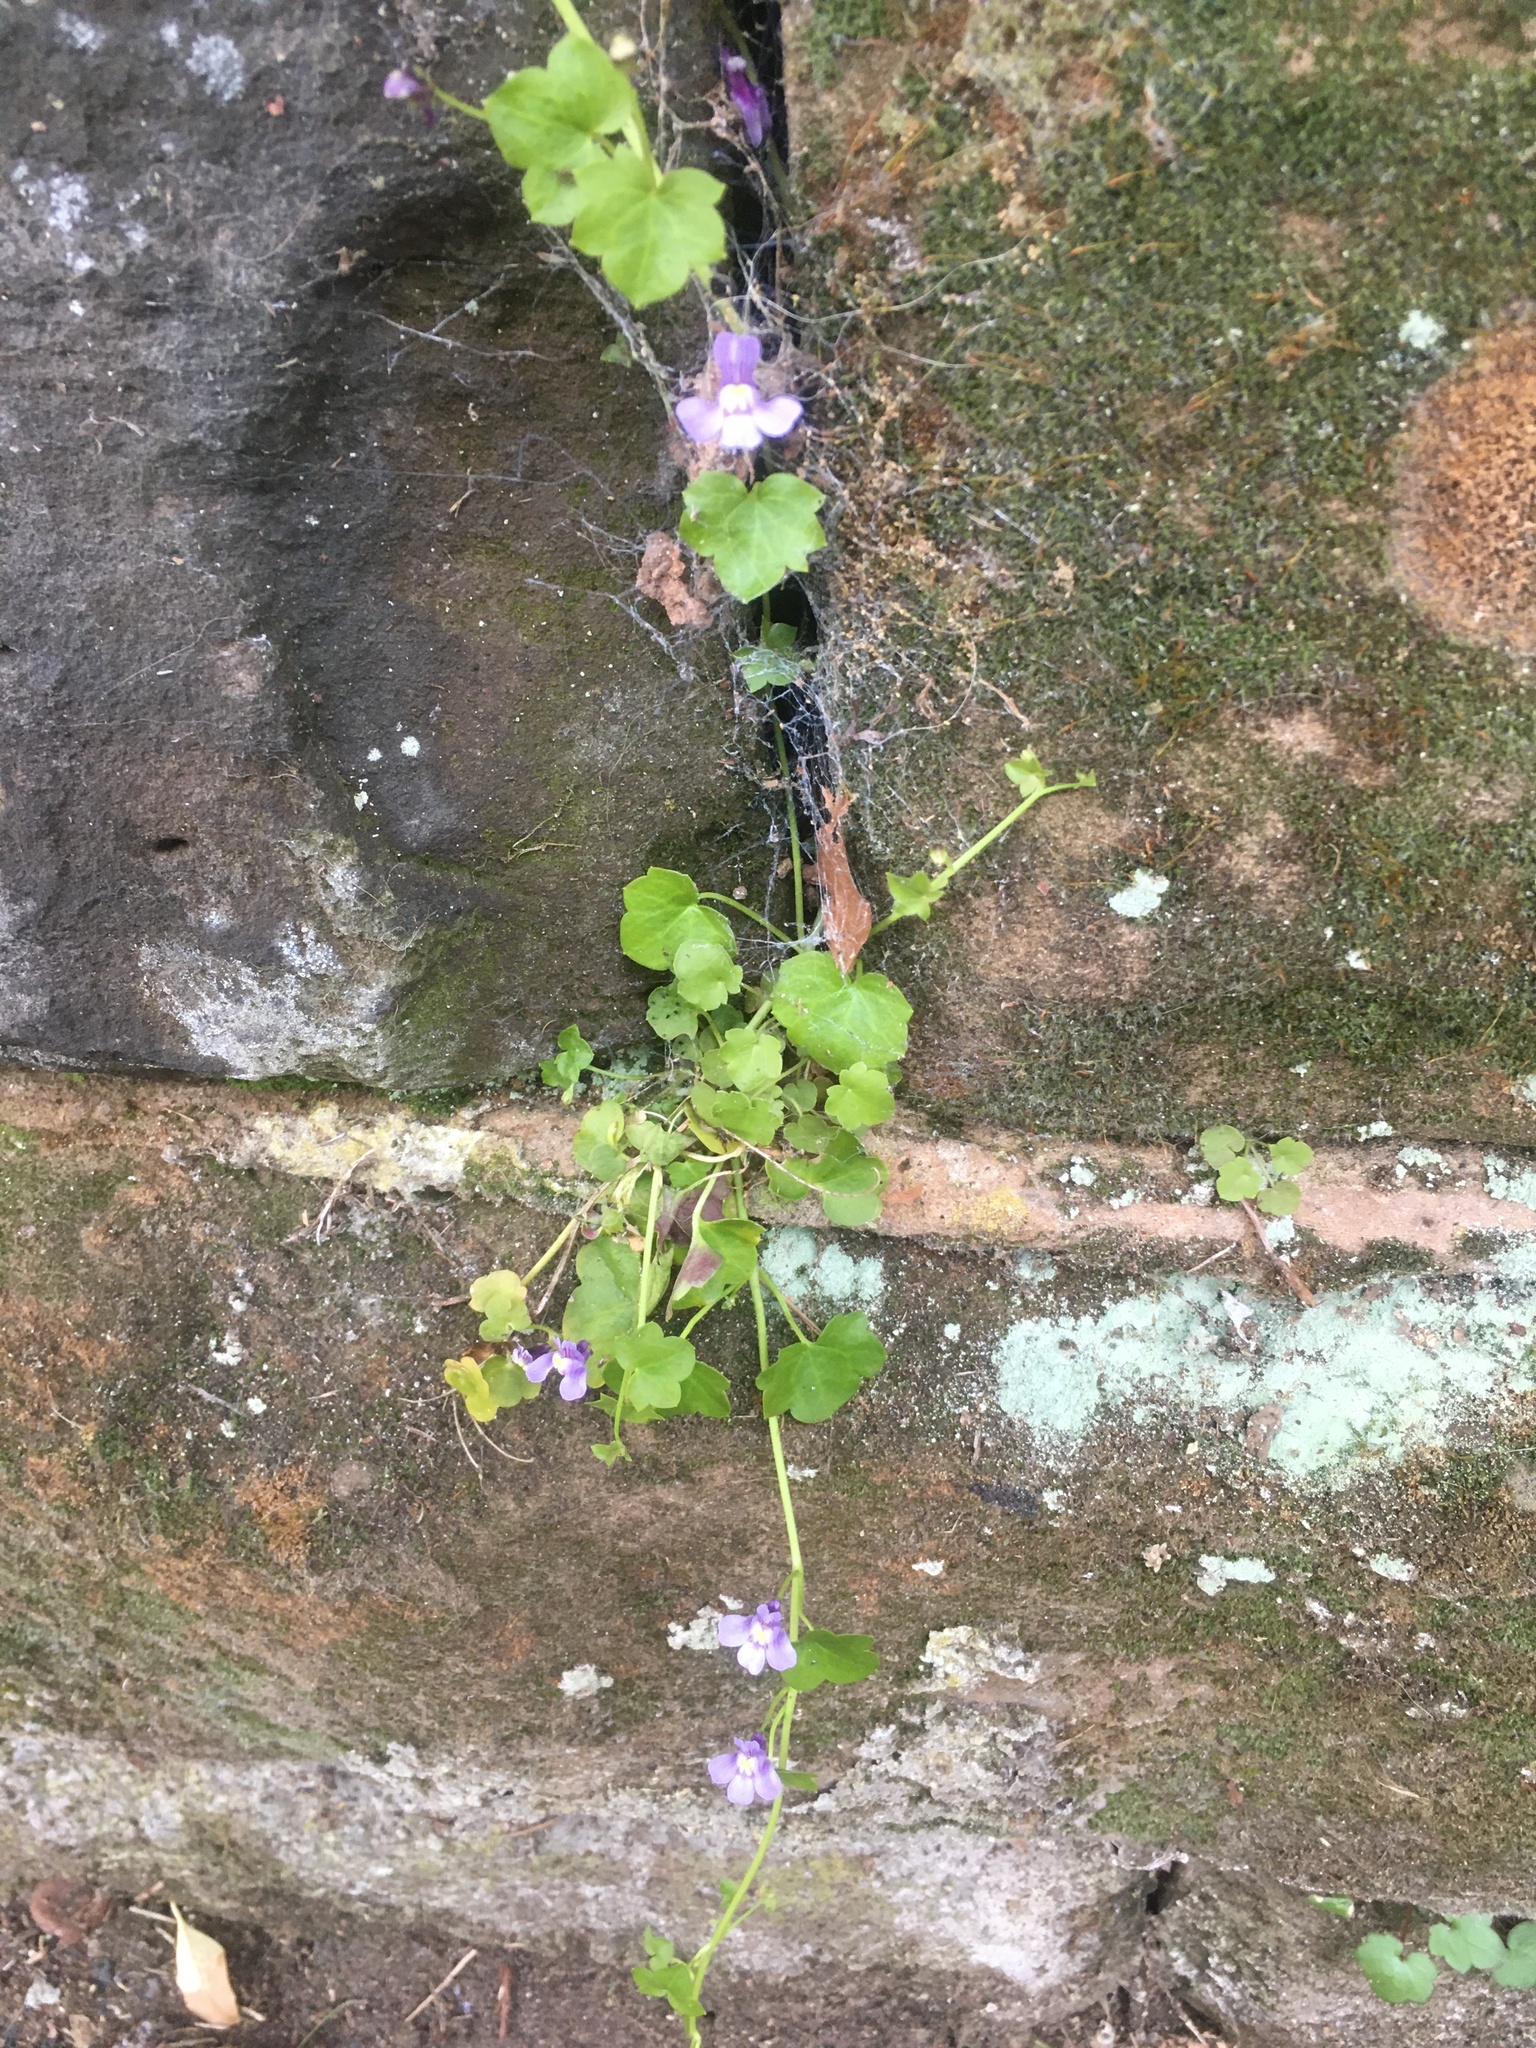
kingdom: Plantae
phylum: Tracheophyta
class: Magnoliopsida
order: Lamiales
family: Plantaginaceae
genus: Cymbalaria
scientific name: Cymbalaria muralis
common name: Ivy-leaved toadflax
